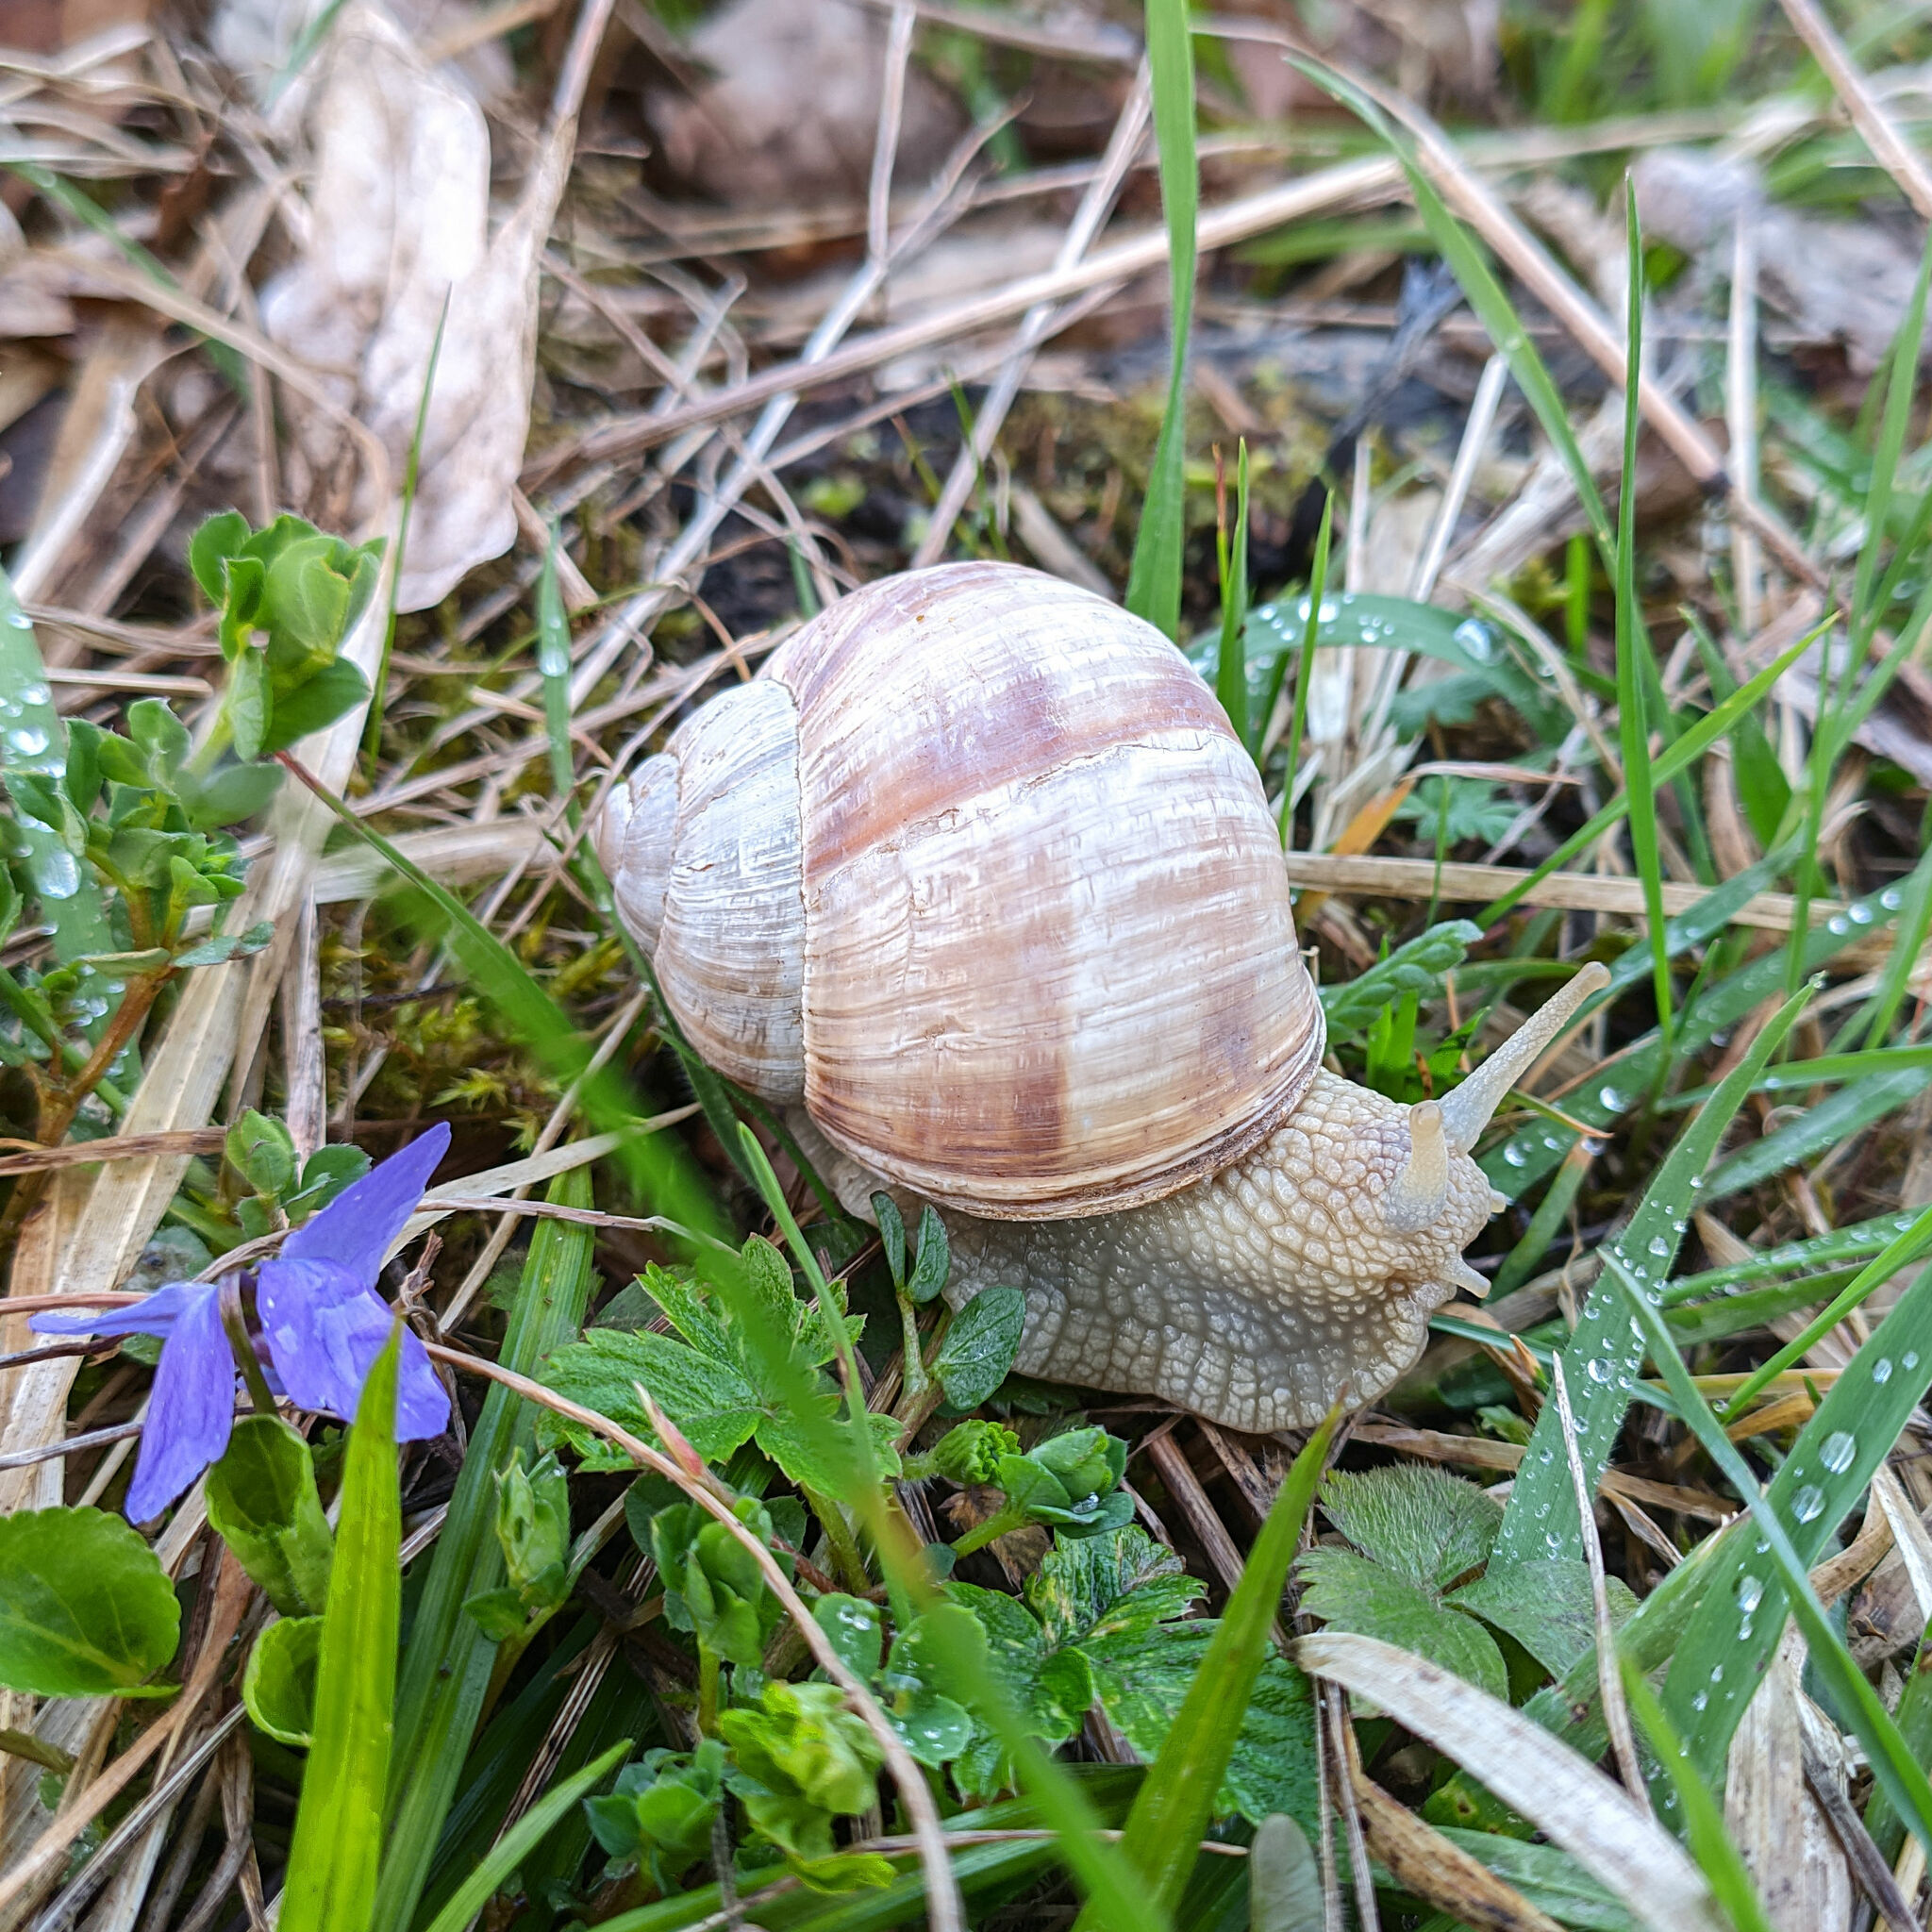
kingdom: Animalia
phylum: Mollusca
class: Gastropoda
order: Stylommatophora
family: Helicidae
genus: Helix
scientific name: Helix pomatia
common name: Roman snail
